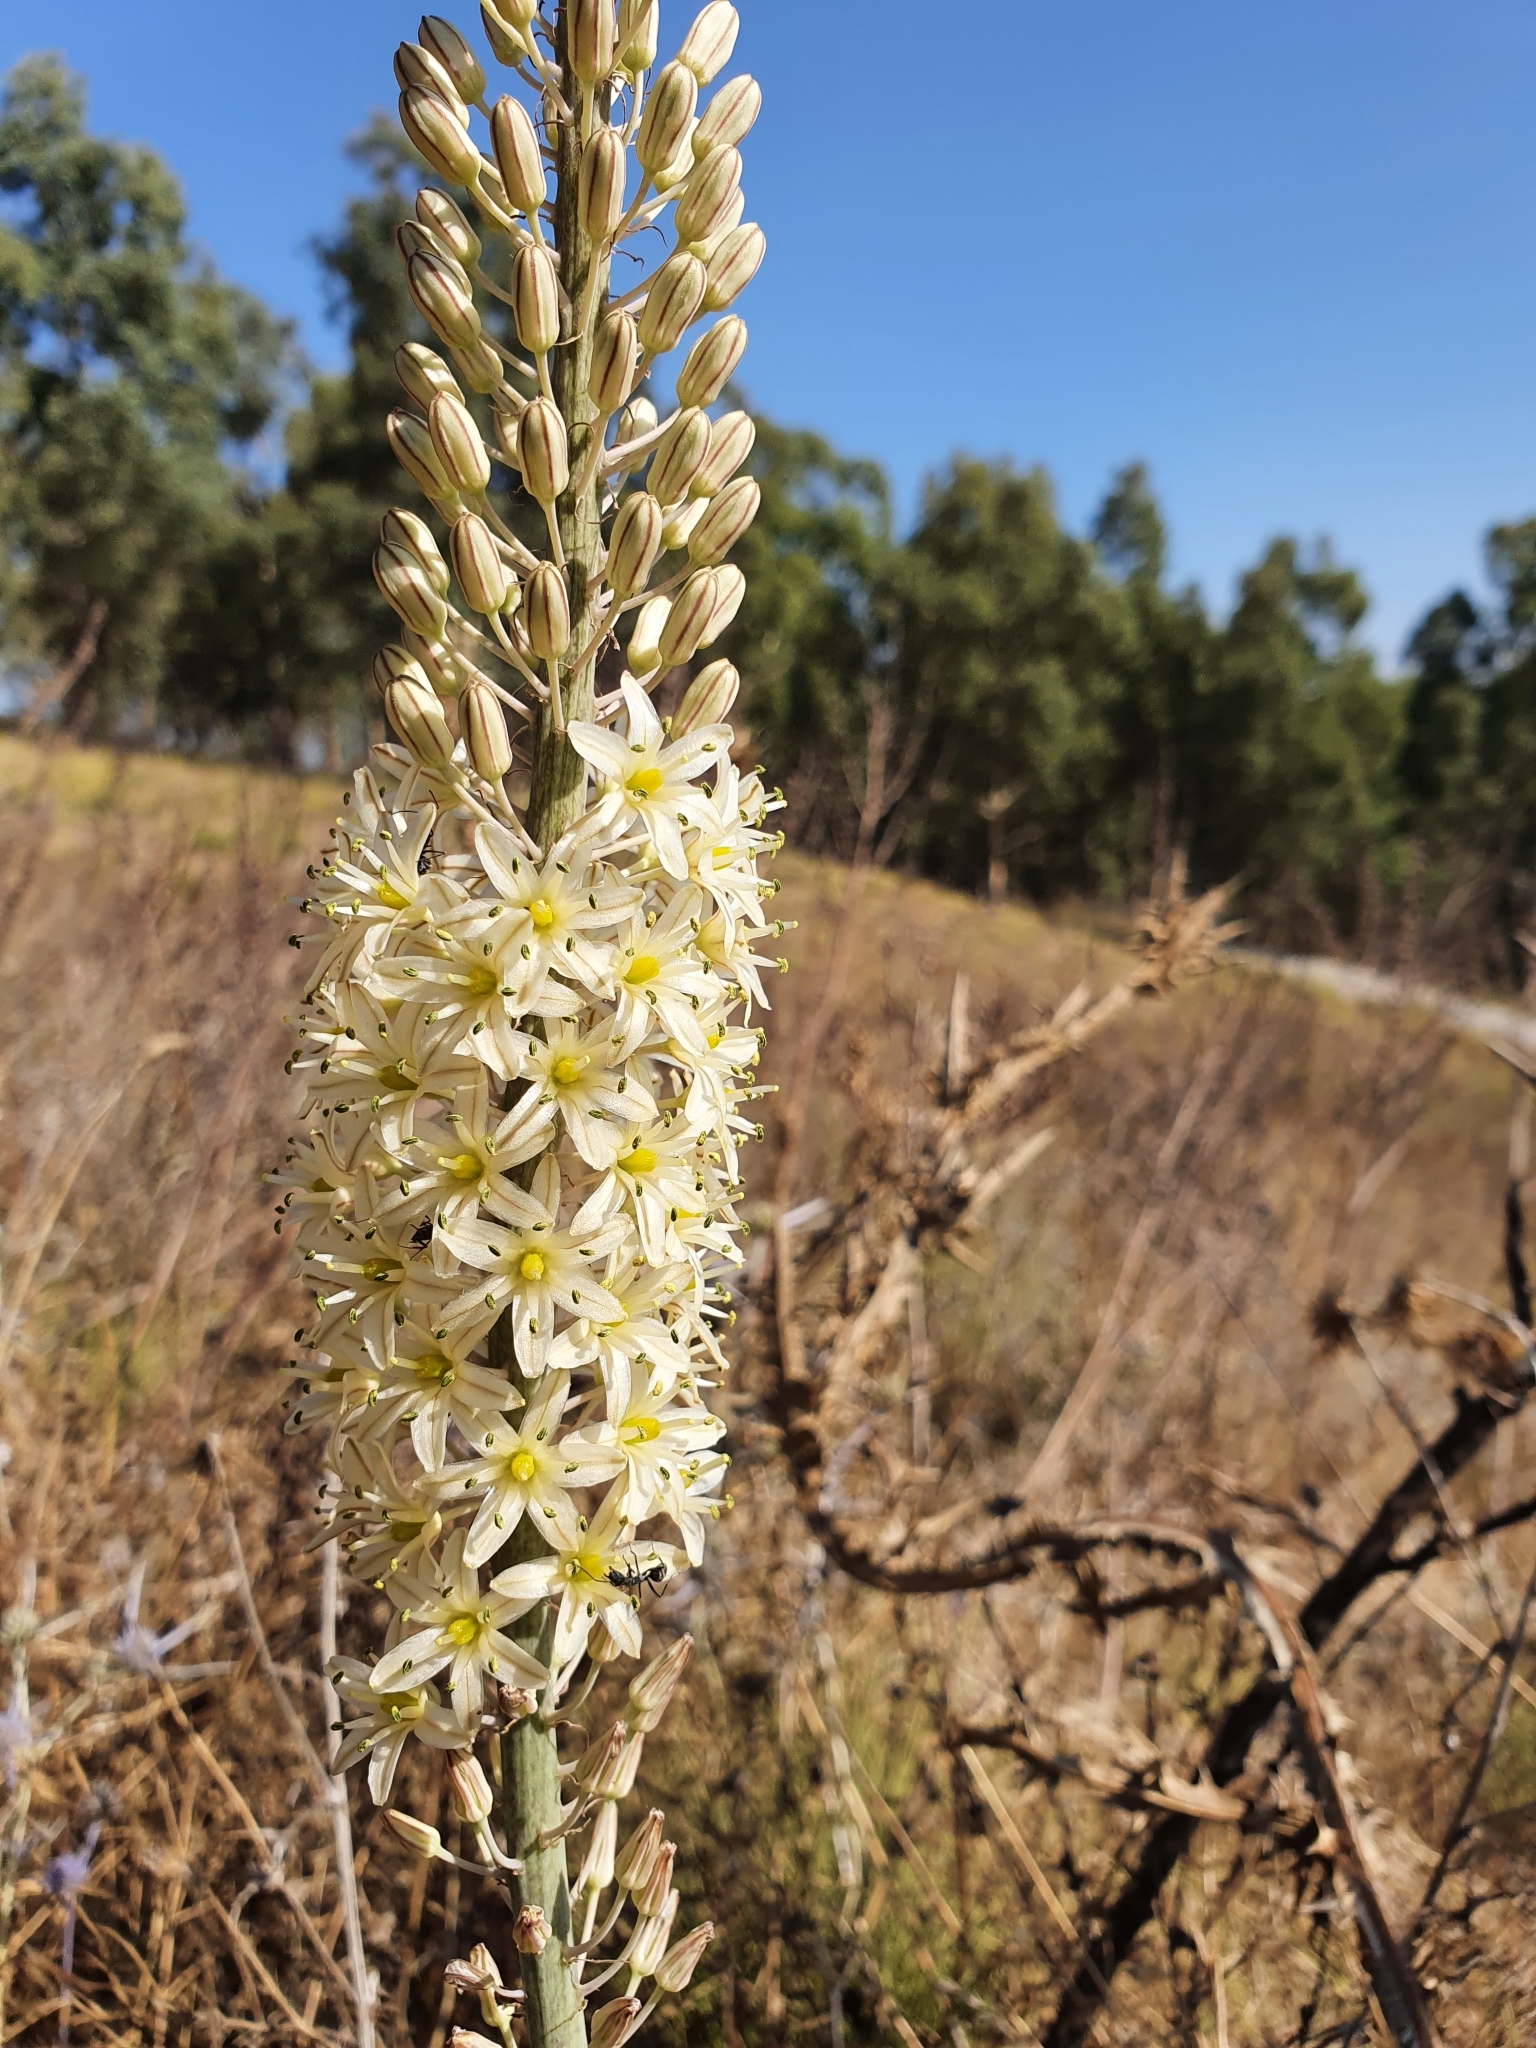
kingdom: Plantae
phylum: Tracheophyta
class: Liliopsida
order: Asparagales
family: Asparagaceae
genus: Drimia
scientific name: Drimia anthericoides
